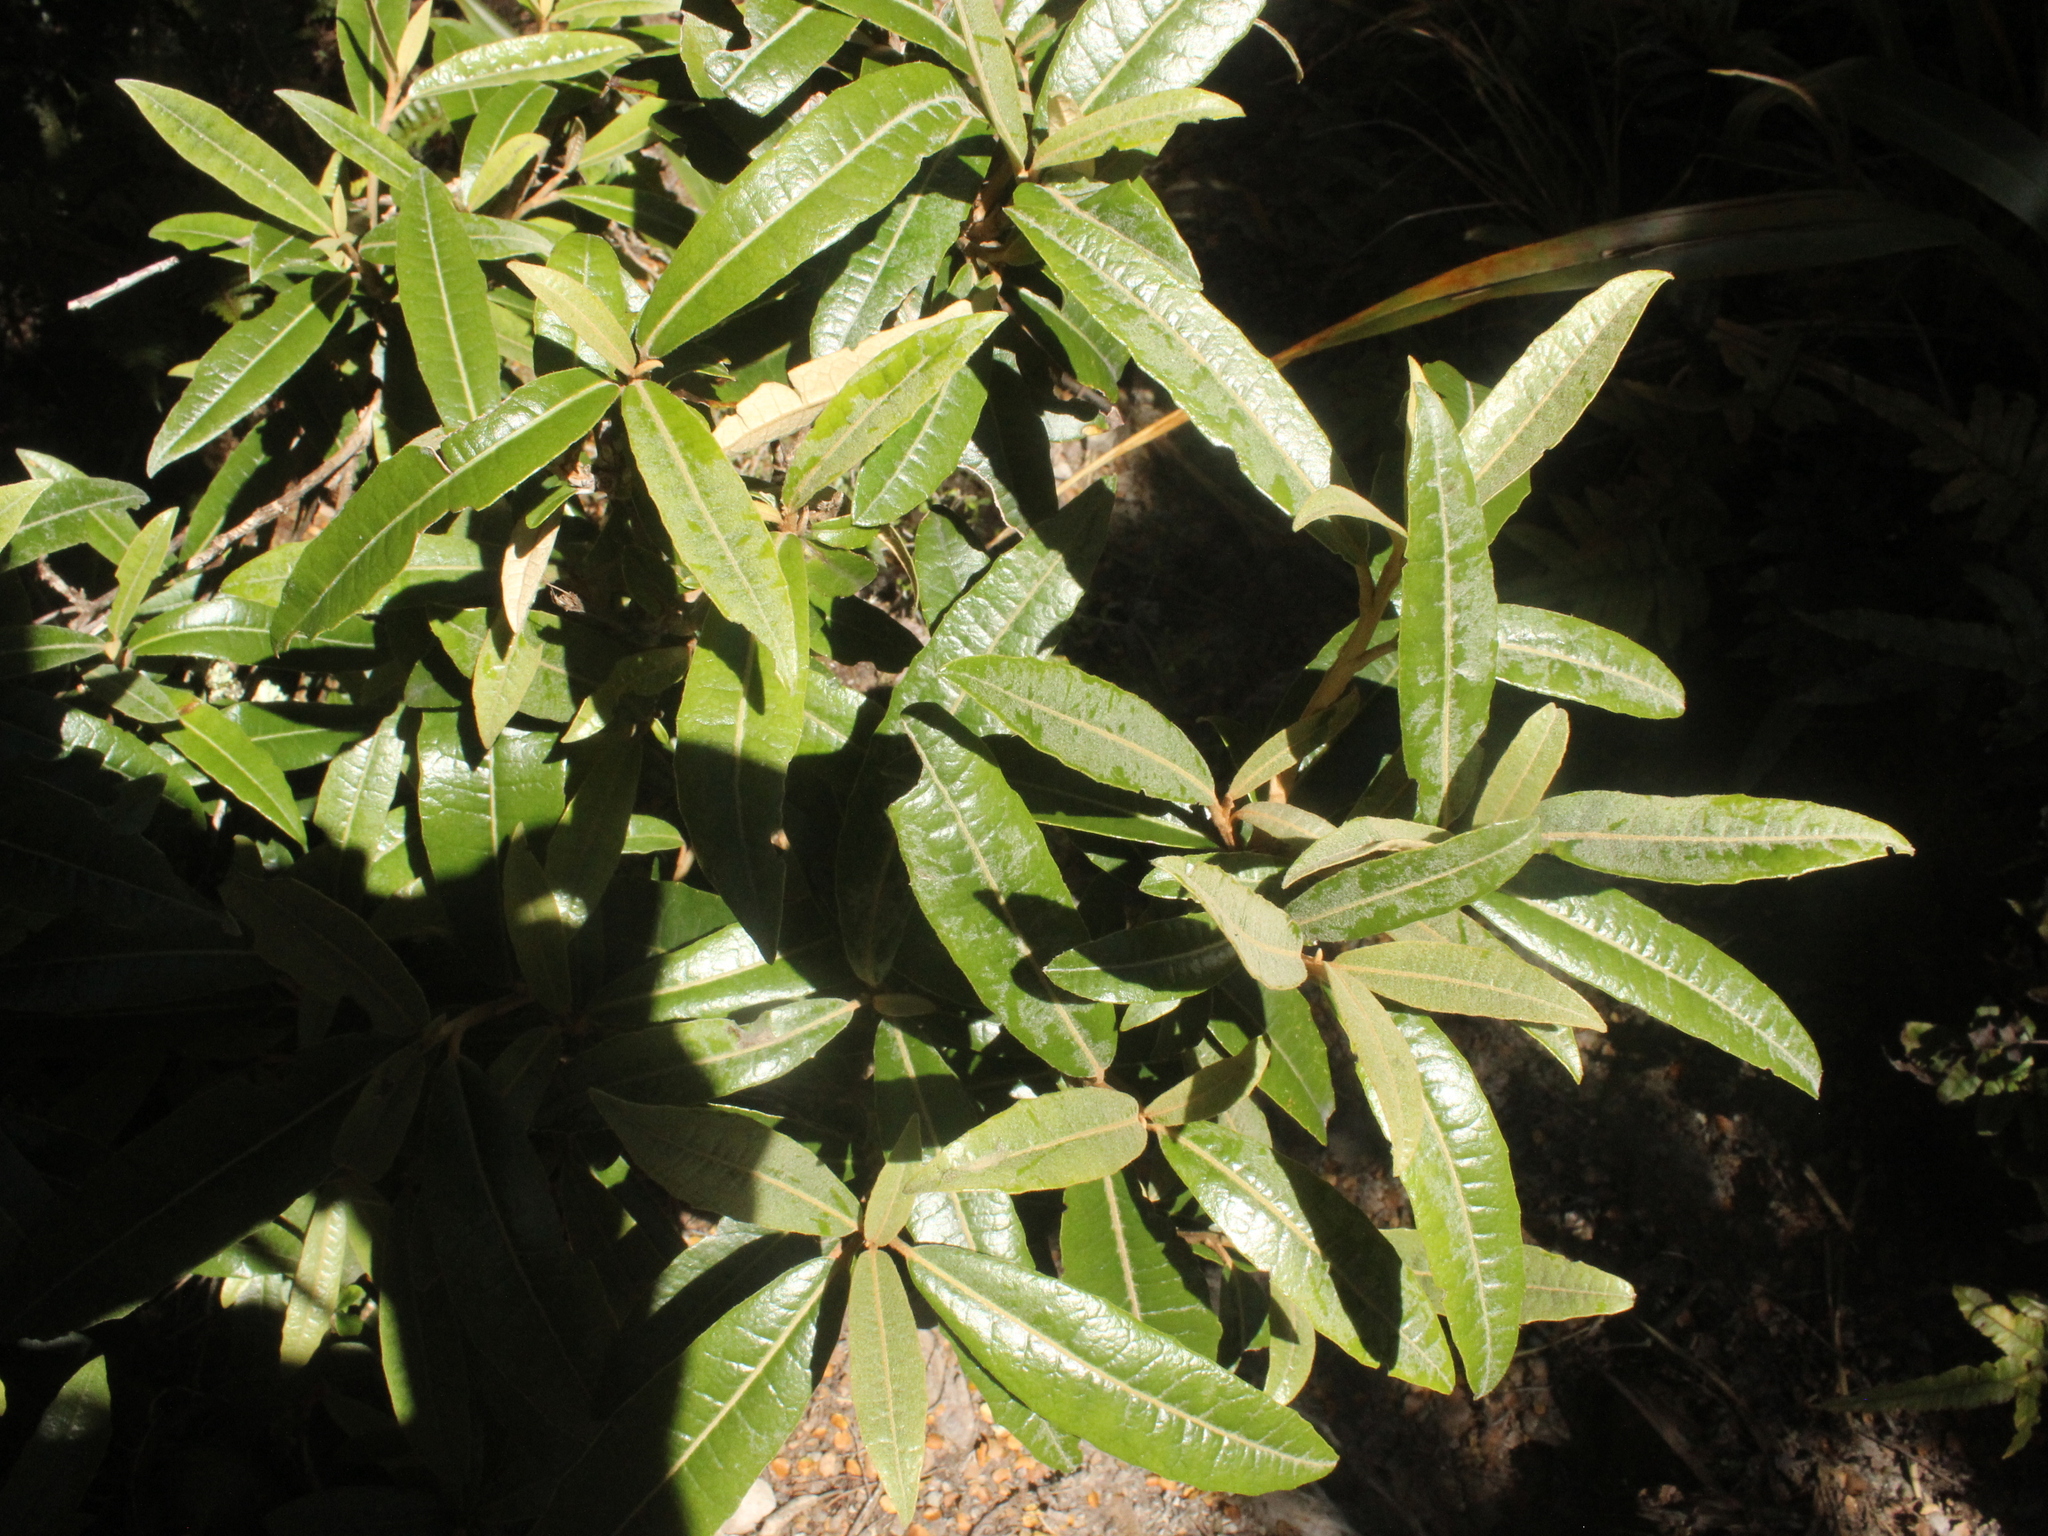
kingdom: Plantae
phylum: Tracheophyta
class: Magnoliopsida
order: Asterales
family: Asteraceae
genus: Olearia
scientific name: Olearia
